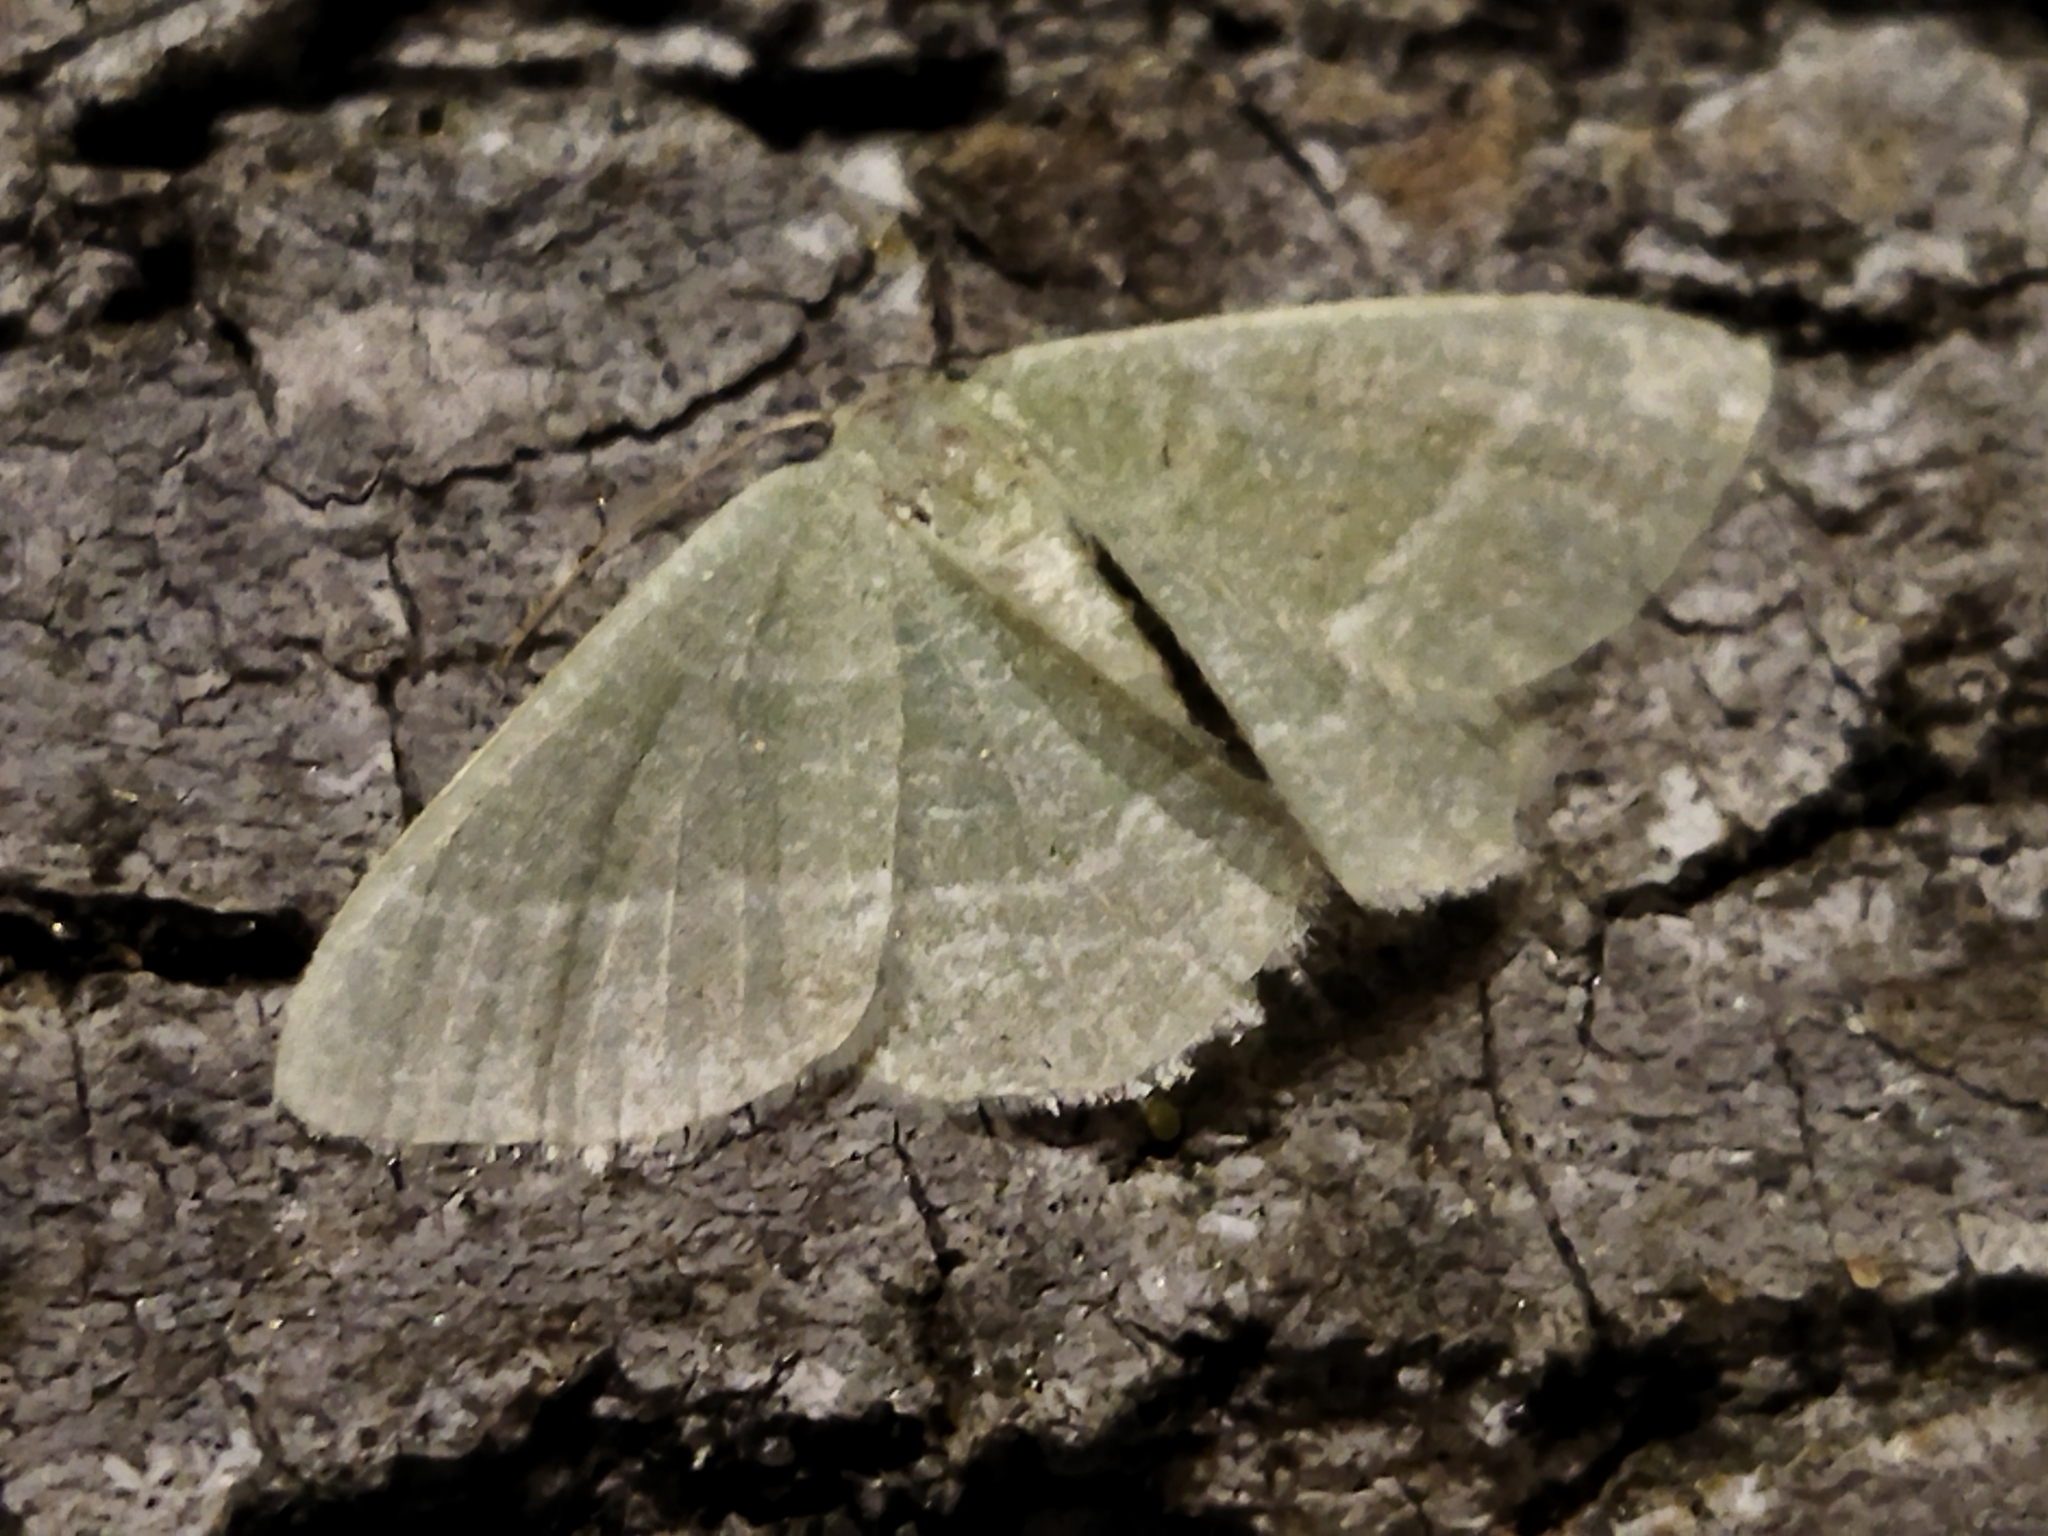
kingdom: Animalia
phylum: Arthropoda
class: Insecta
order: Lepidoptera
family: Geometridae
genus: Chlorissa
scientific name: Chlorissa etruscaria
